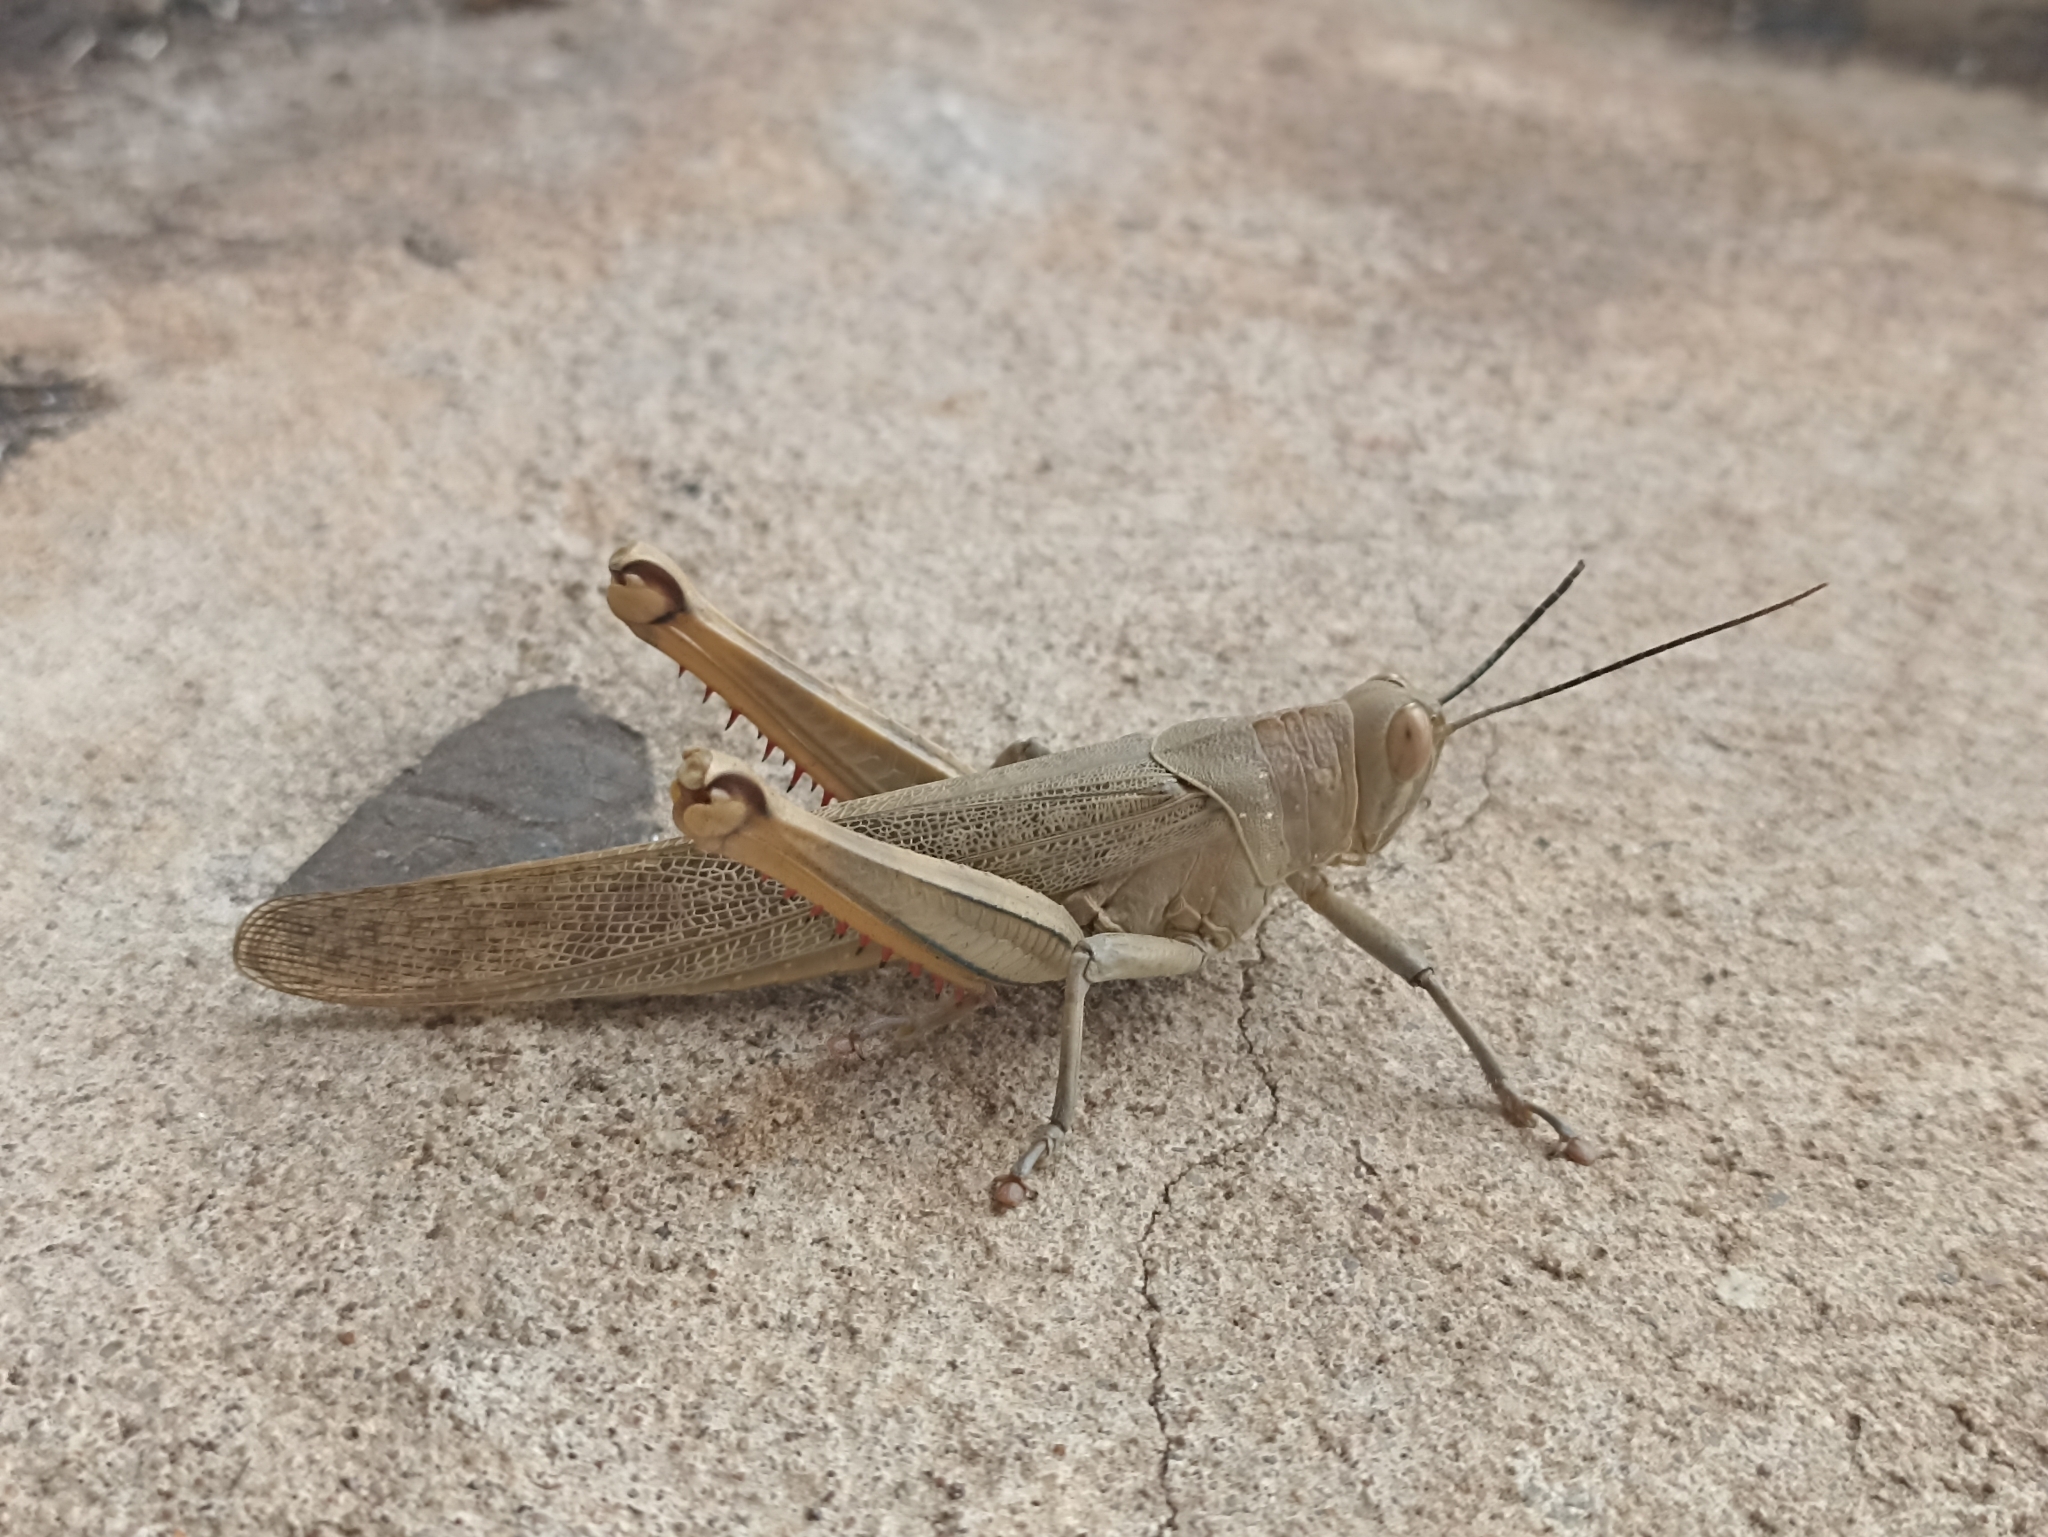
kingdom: Animalia
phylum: Arthropoda
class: Insecta
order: Orthoptera
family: Acrididae
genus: Valanga
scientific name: Valanga irregularis
